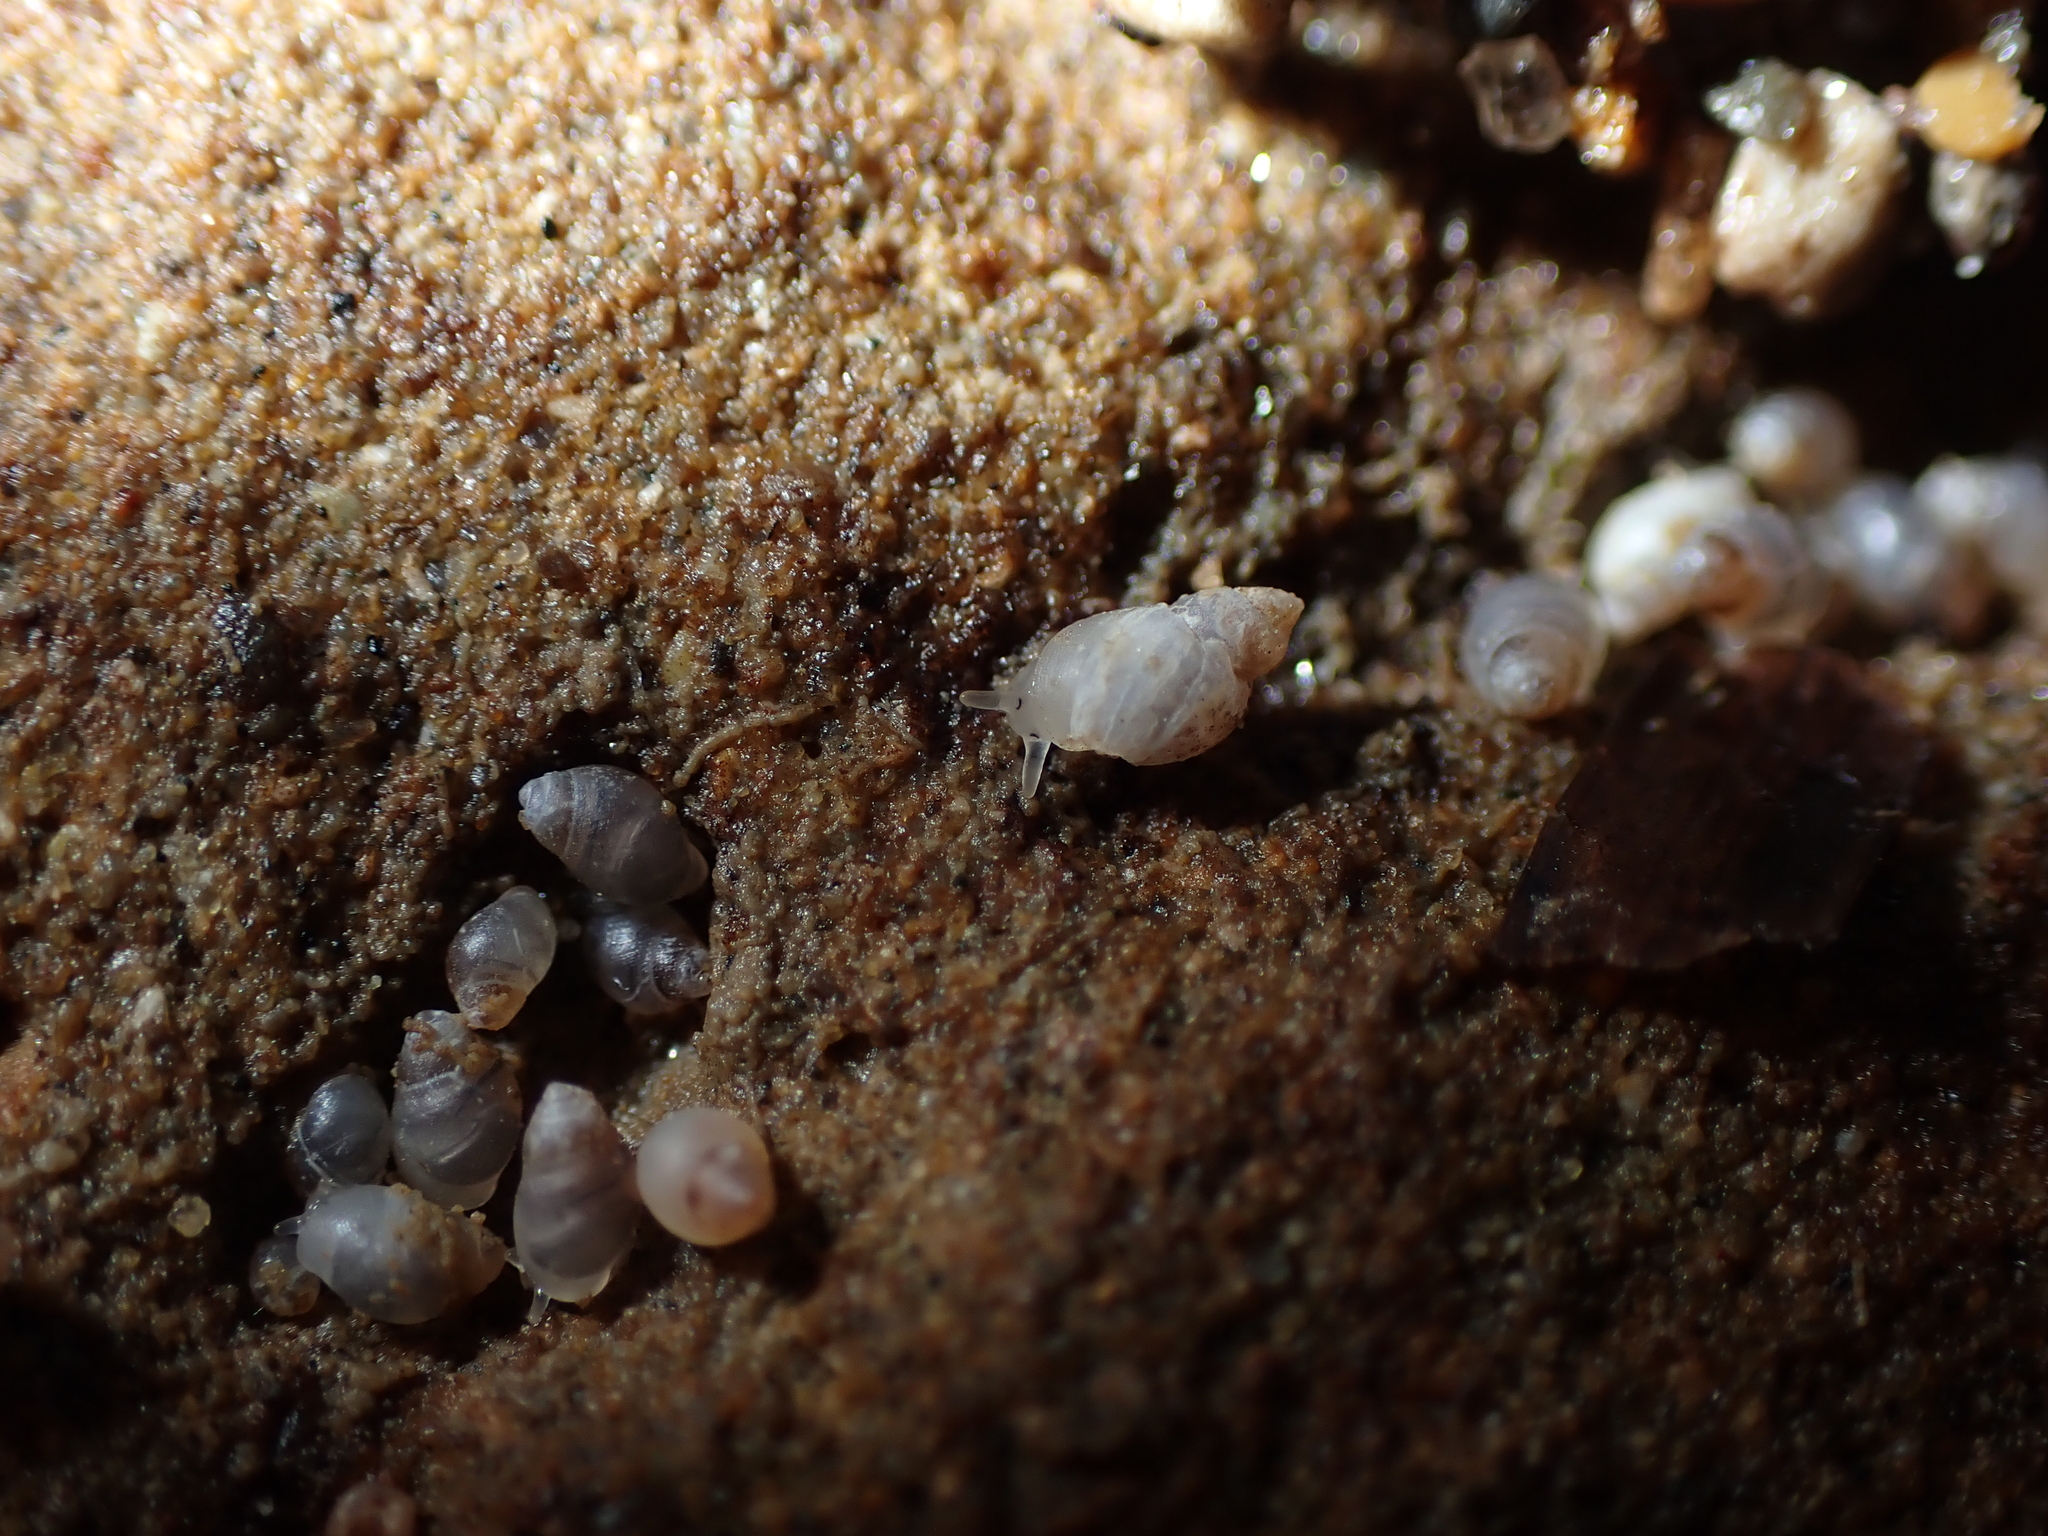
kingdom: Animalia
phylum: Mollusca
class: Gastropoda
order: Ellobiida
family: Ellobiidae
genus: Leuconopsis
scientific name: Leuconopsis obsoleta
